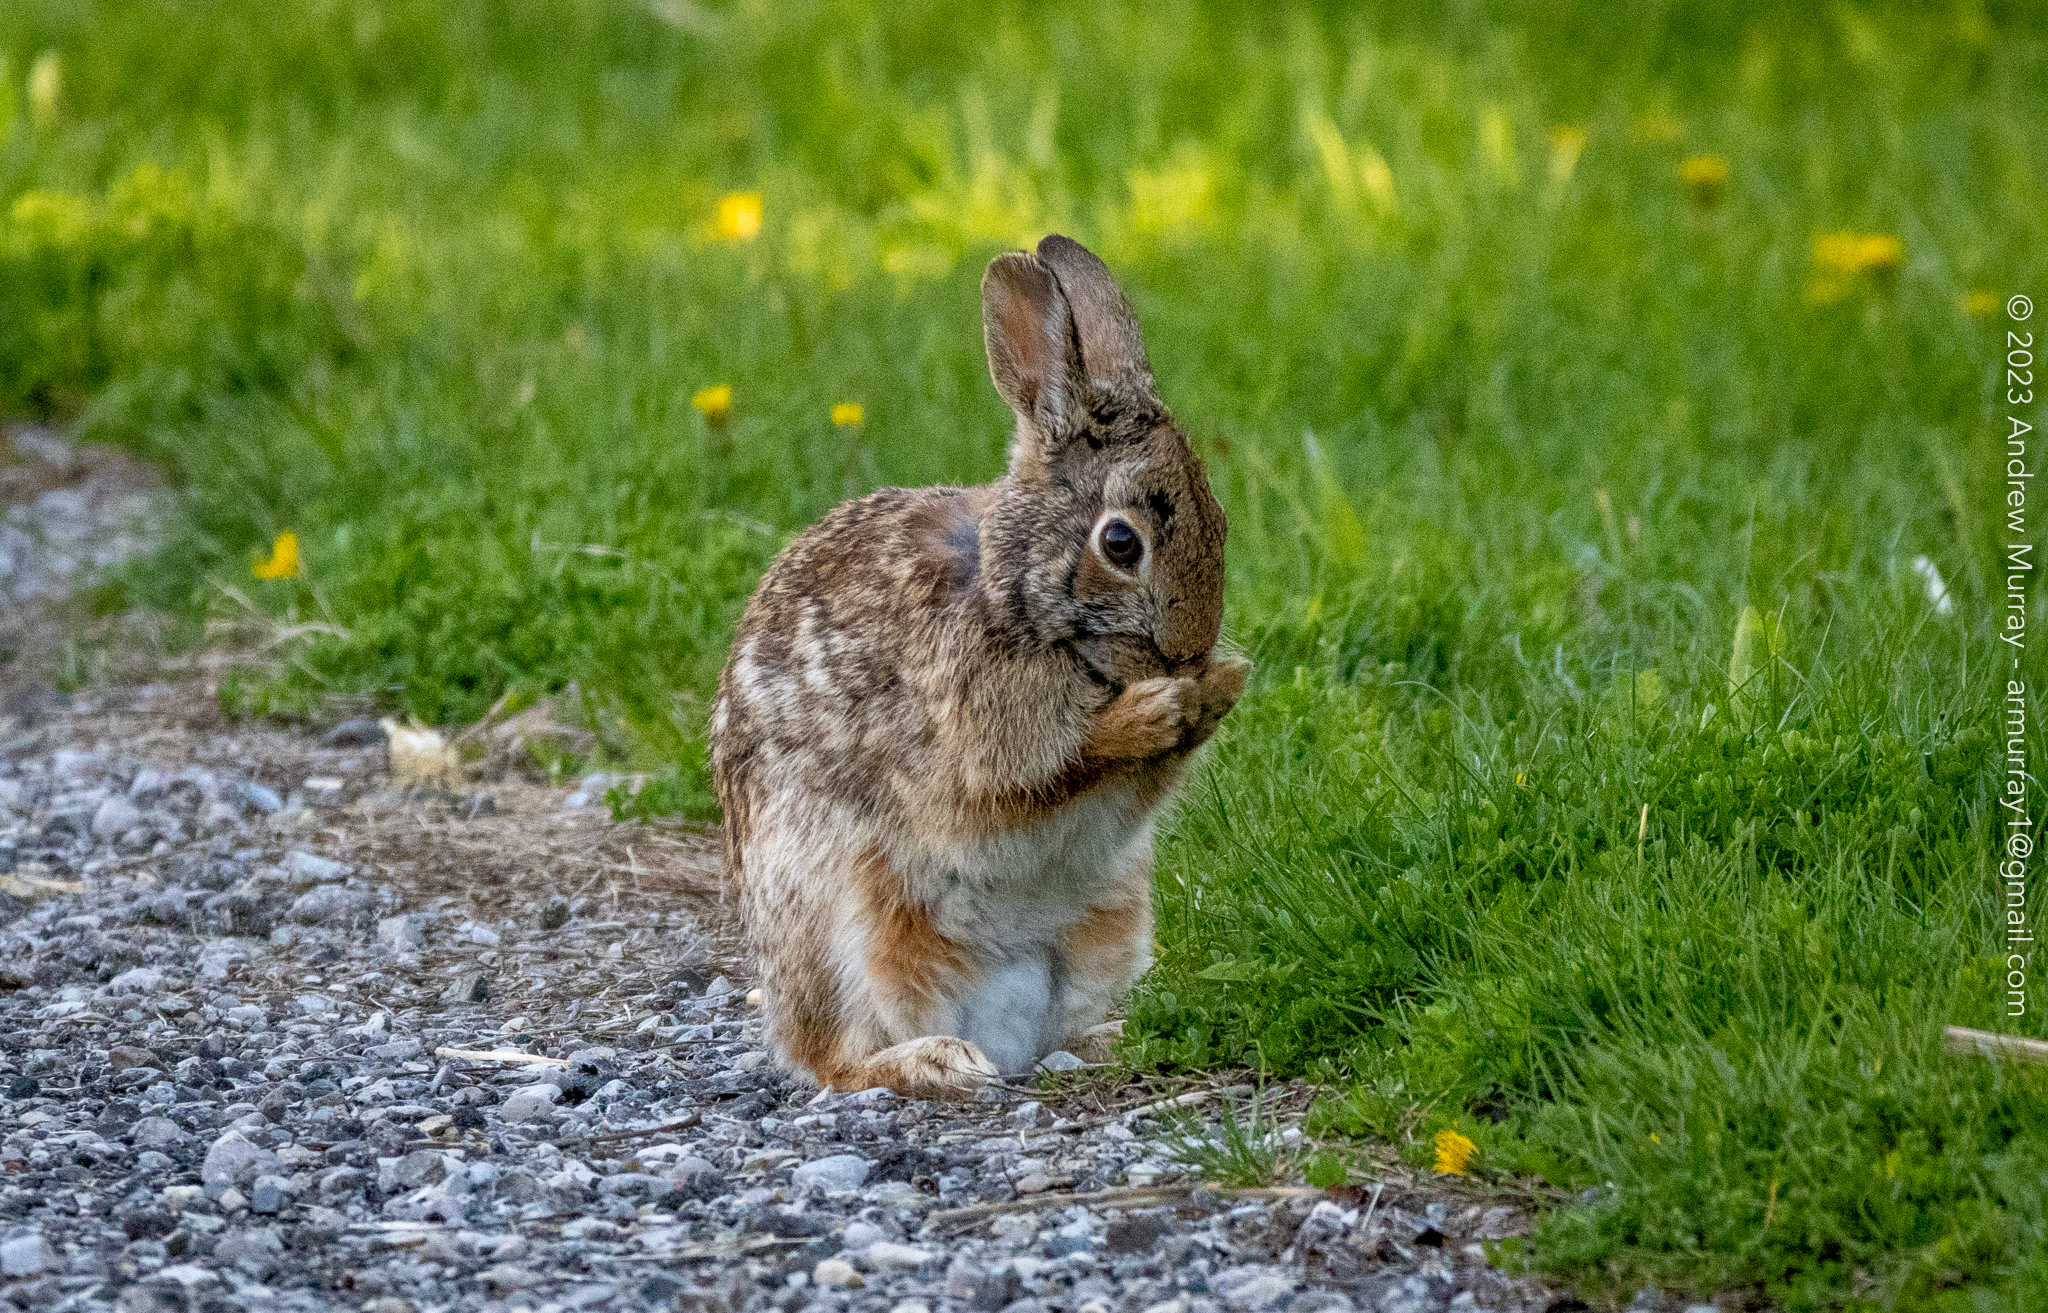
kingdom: Animalia
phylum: Chordata
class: Mammalia
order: Lagomorpha
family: Leporidae
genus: Sylvilagus
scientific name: Sylvilagus floridanus
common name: Eastern cottontail
